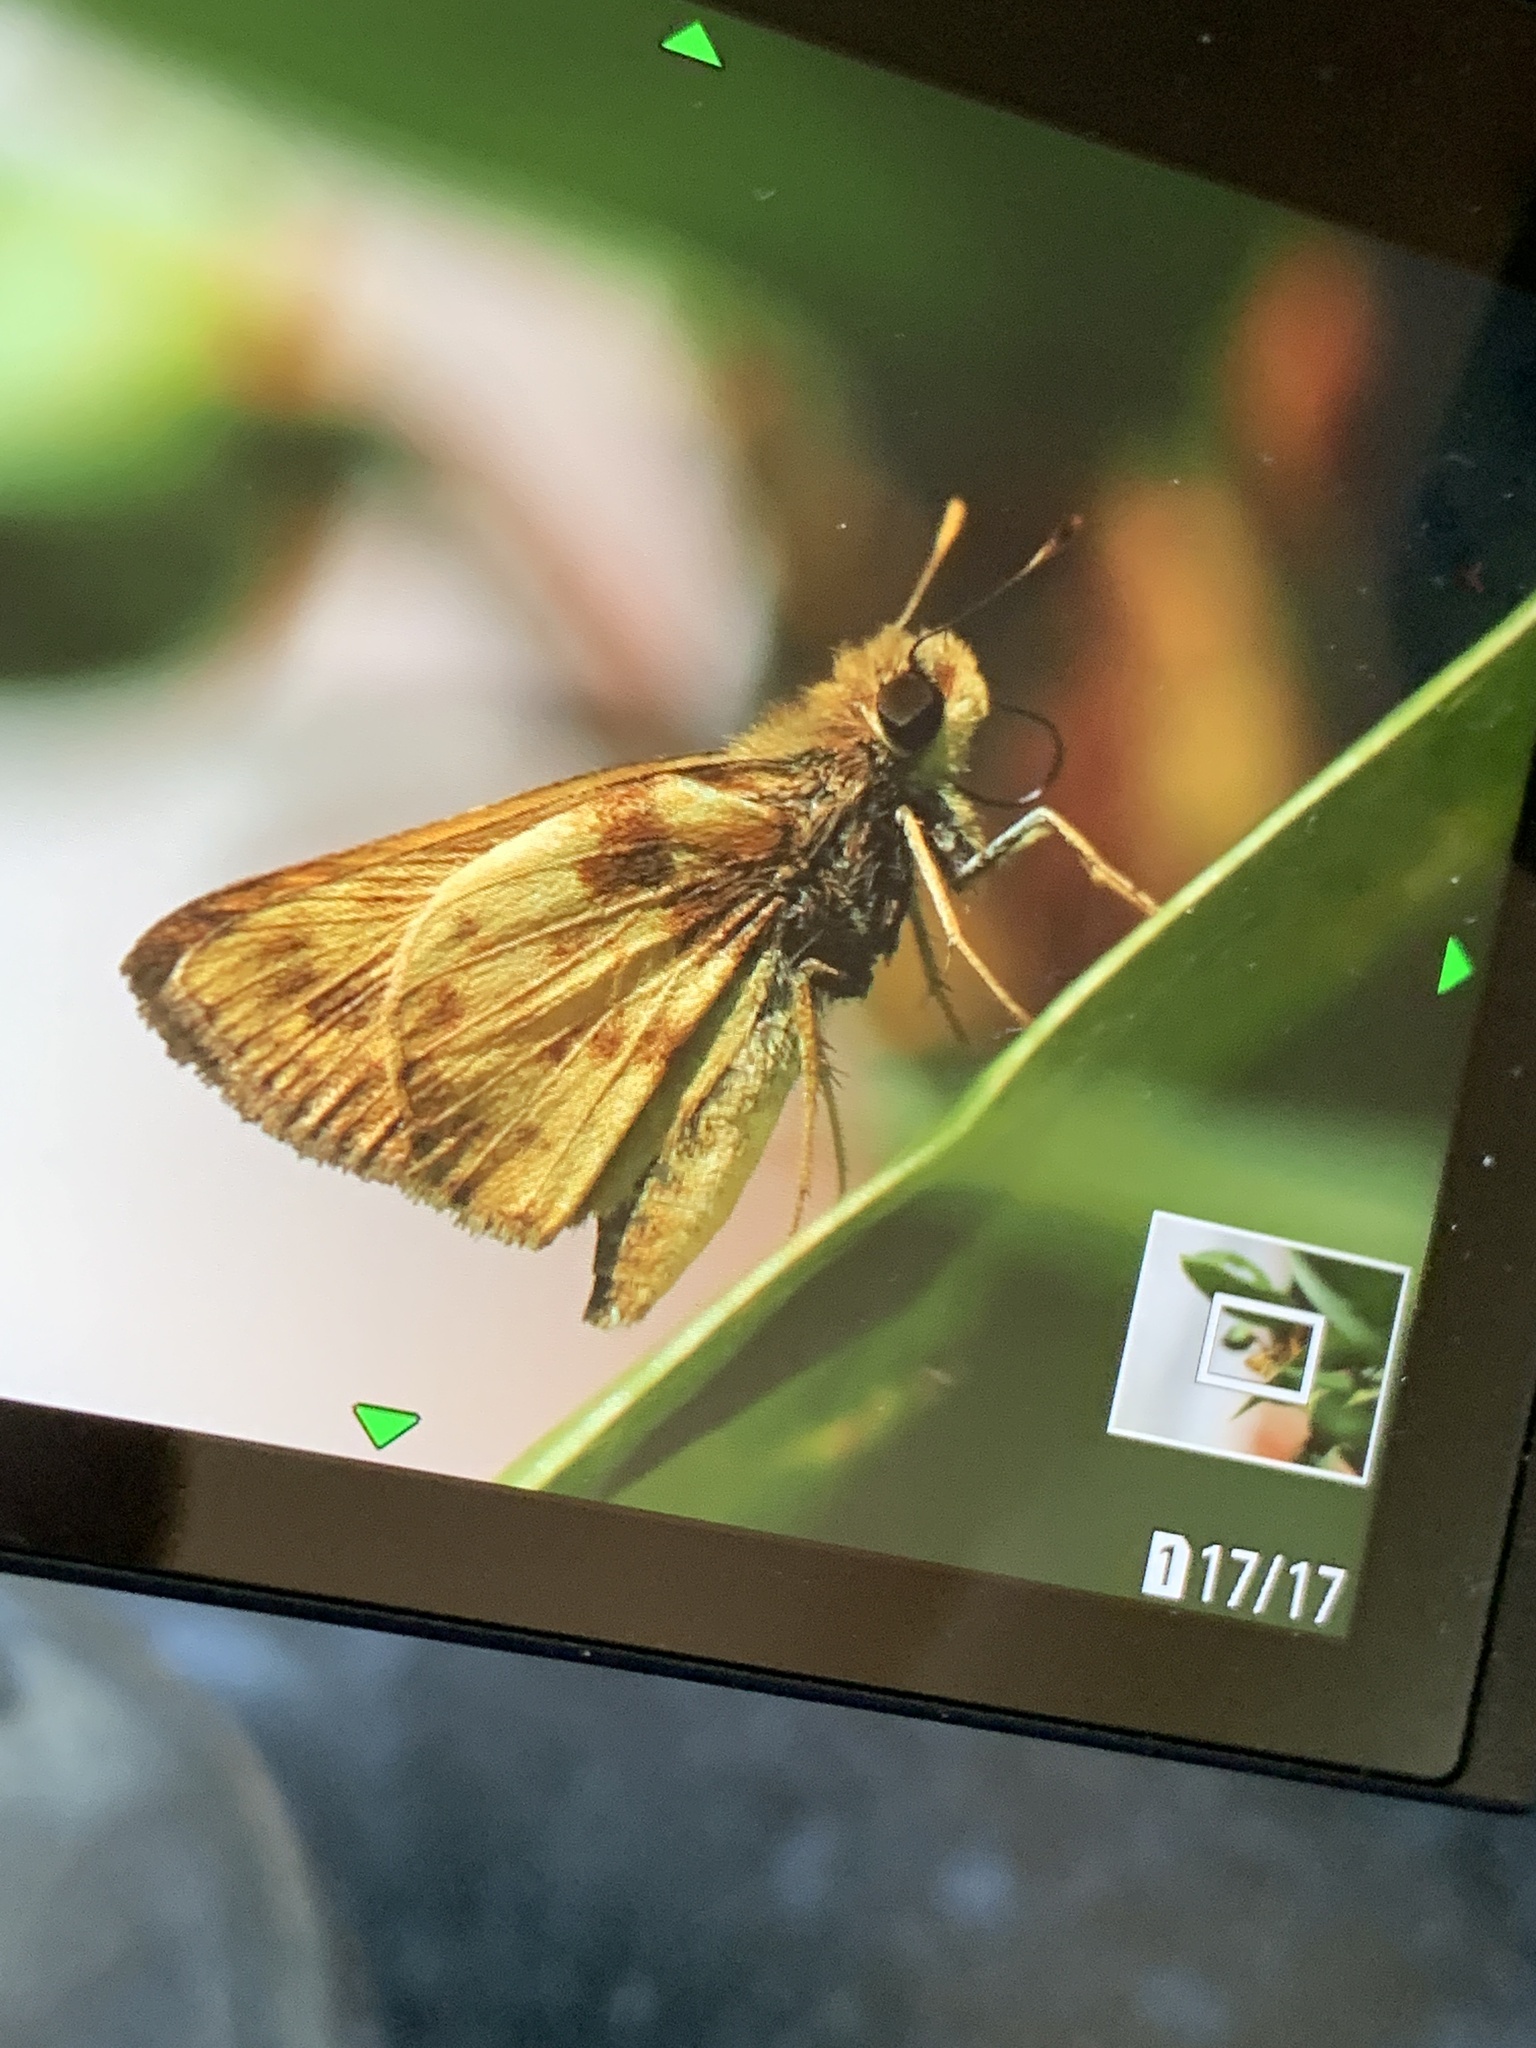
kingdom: Animalia
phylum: Arthropoda
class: Insecta
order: Lepidoptera
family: Hesperiidae
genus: Lon
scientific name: Lon zabulon
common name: Zabulon skipper
